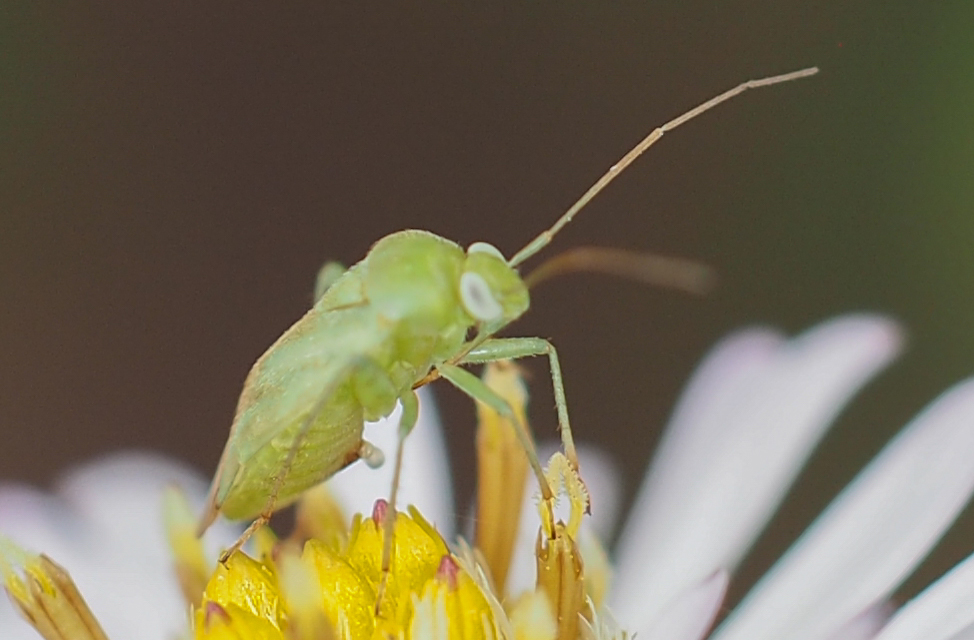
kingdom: Animalia
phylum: Arthropoda
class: Insecta
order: Hemiptera
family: Miridae
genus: Taylorilygus
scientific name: Taylorilygus apicalis
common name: Plant bug
